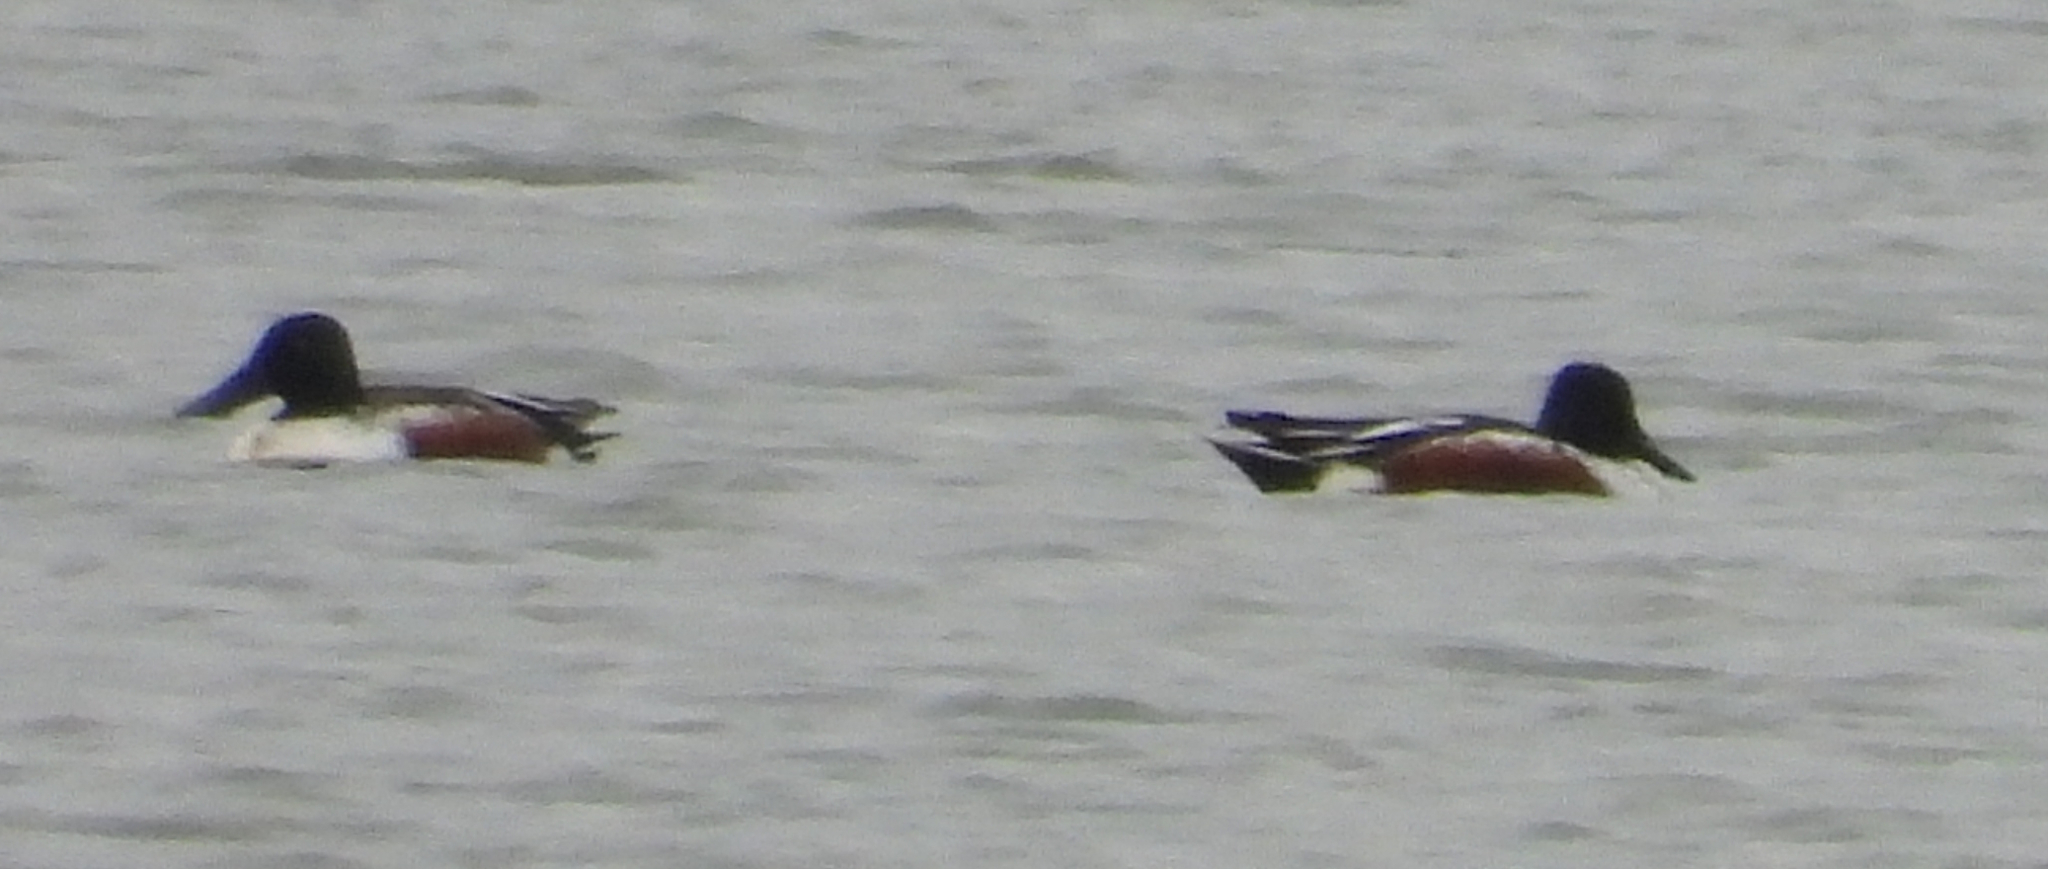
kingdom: Animalia
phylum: Chordata
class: Aves
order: Anseriformes
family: Anatidae
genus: Spatula
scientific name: Spatula clypeata
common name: Northern shoveler
